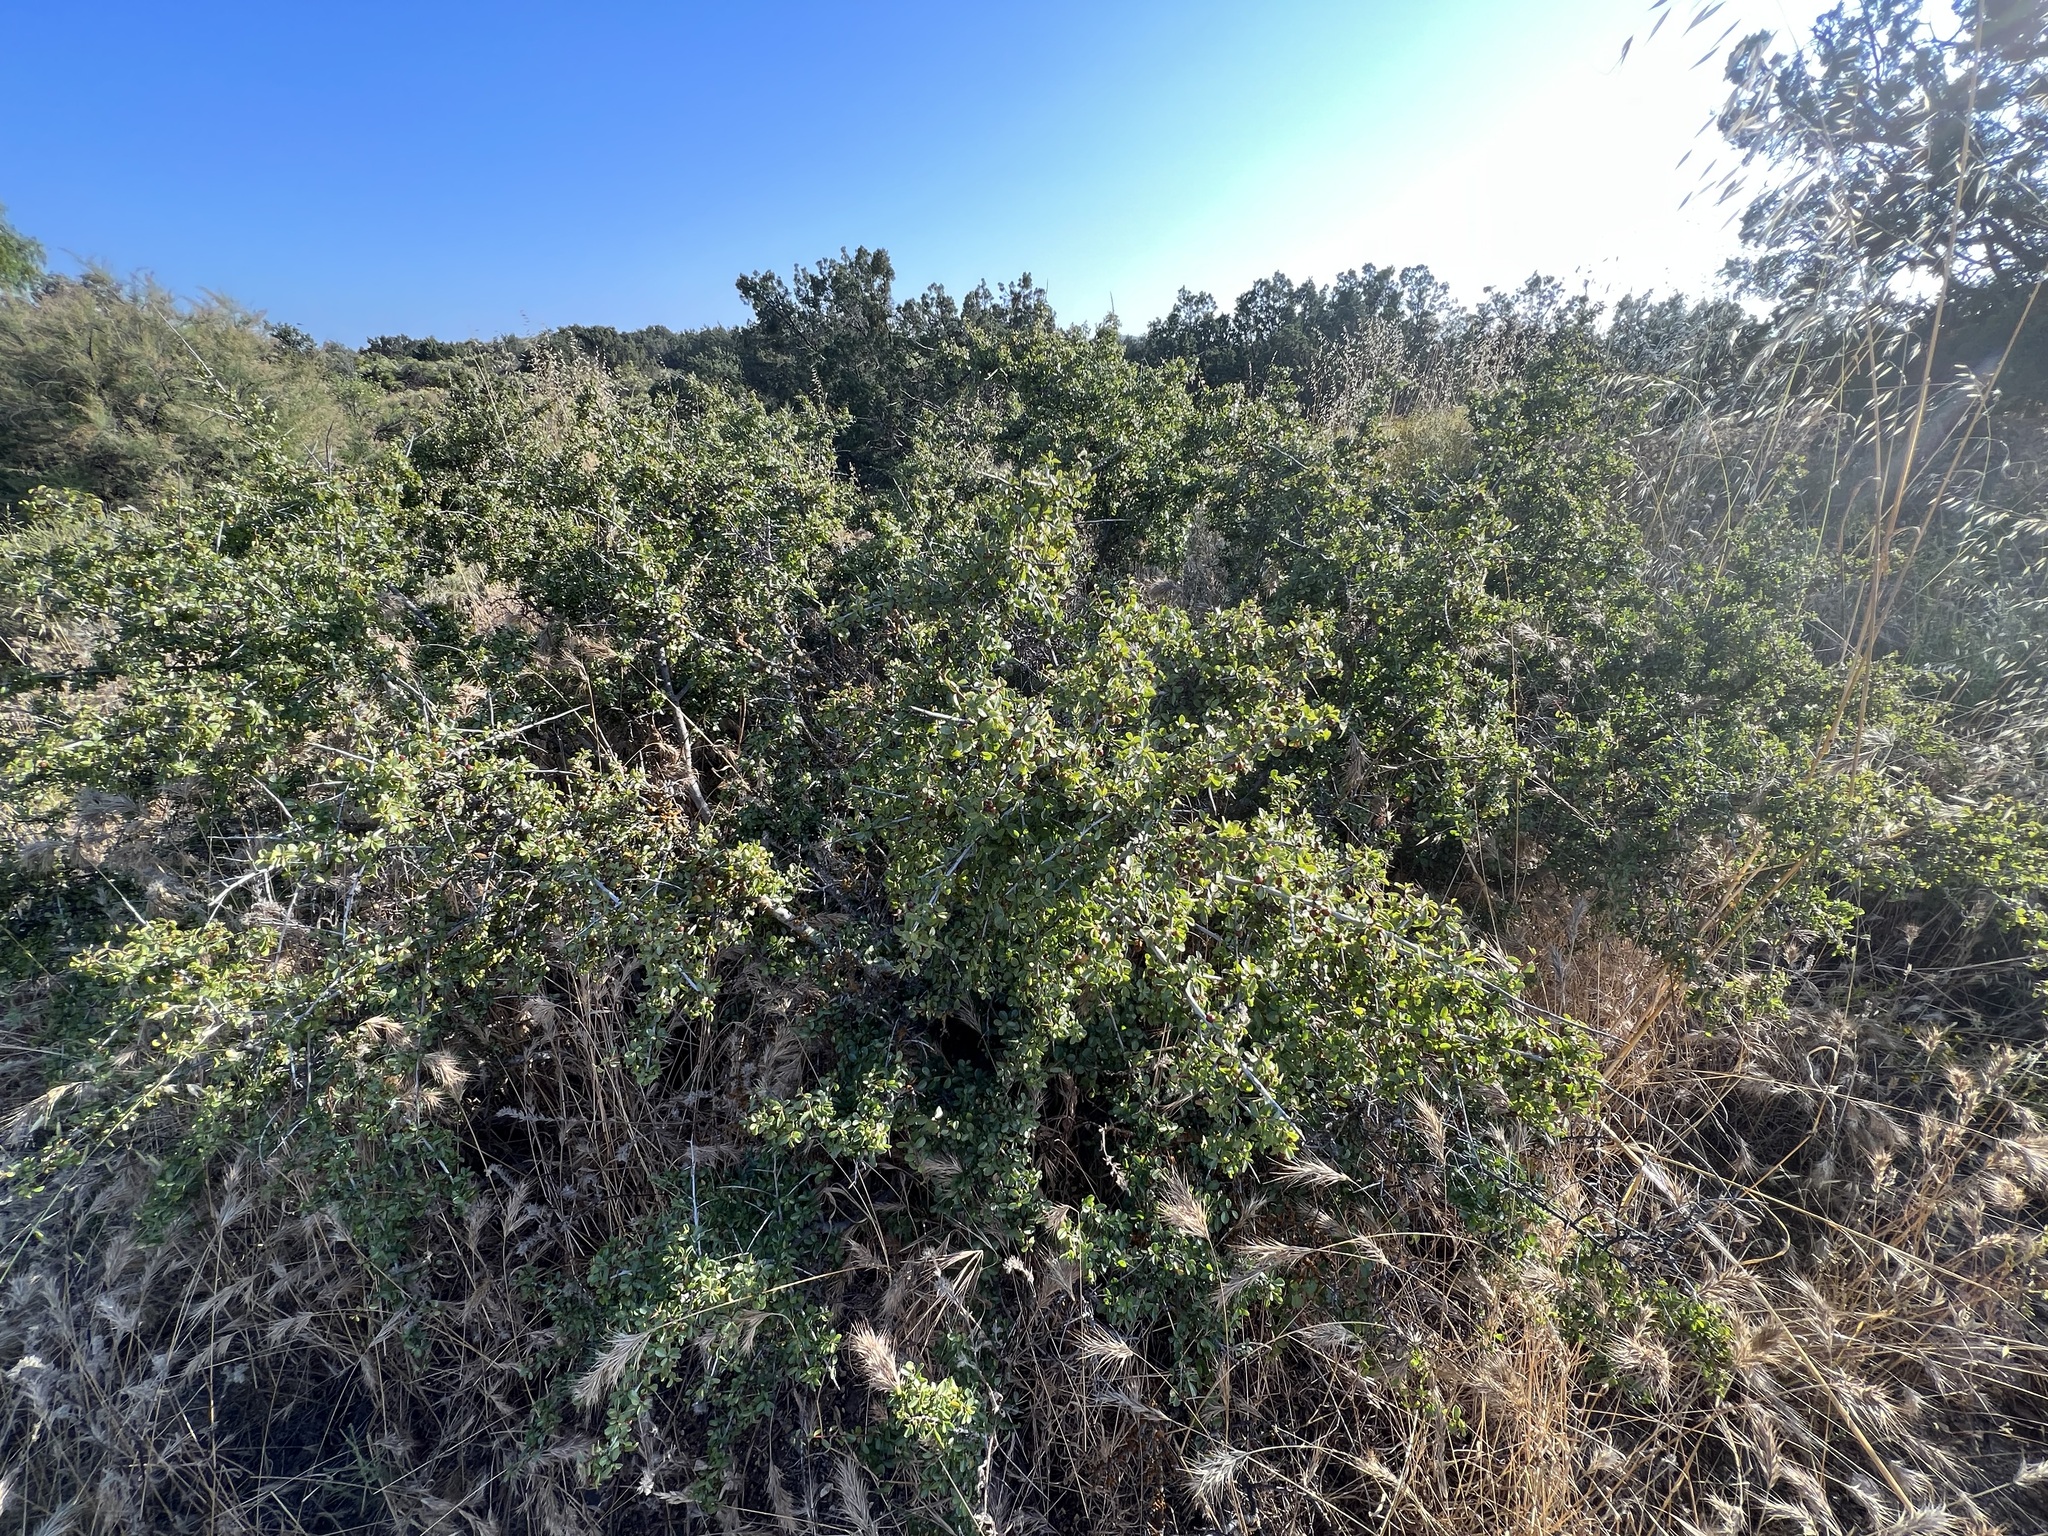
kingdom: Plantae
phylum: Tracheophyta
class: Magnoliopsida
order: Rosales
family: Rhamnaceae
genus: Endotropis
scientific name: Endotropis crocea
